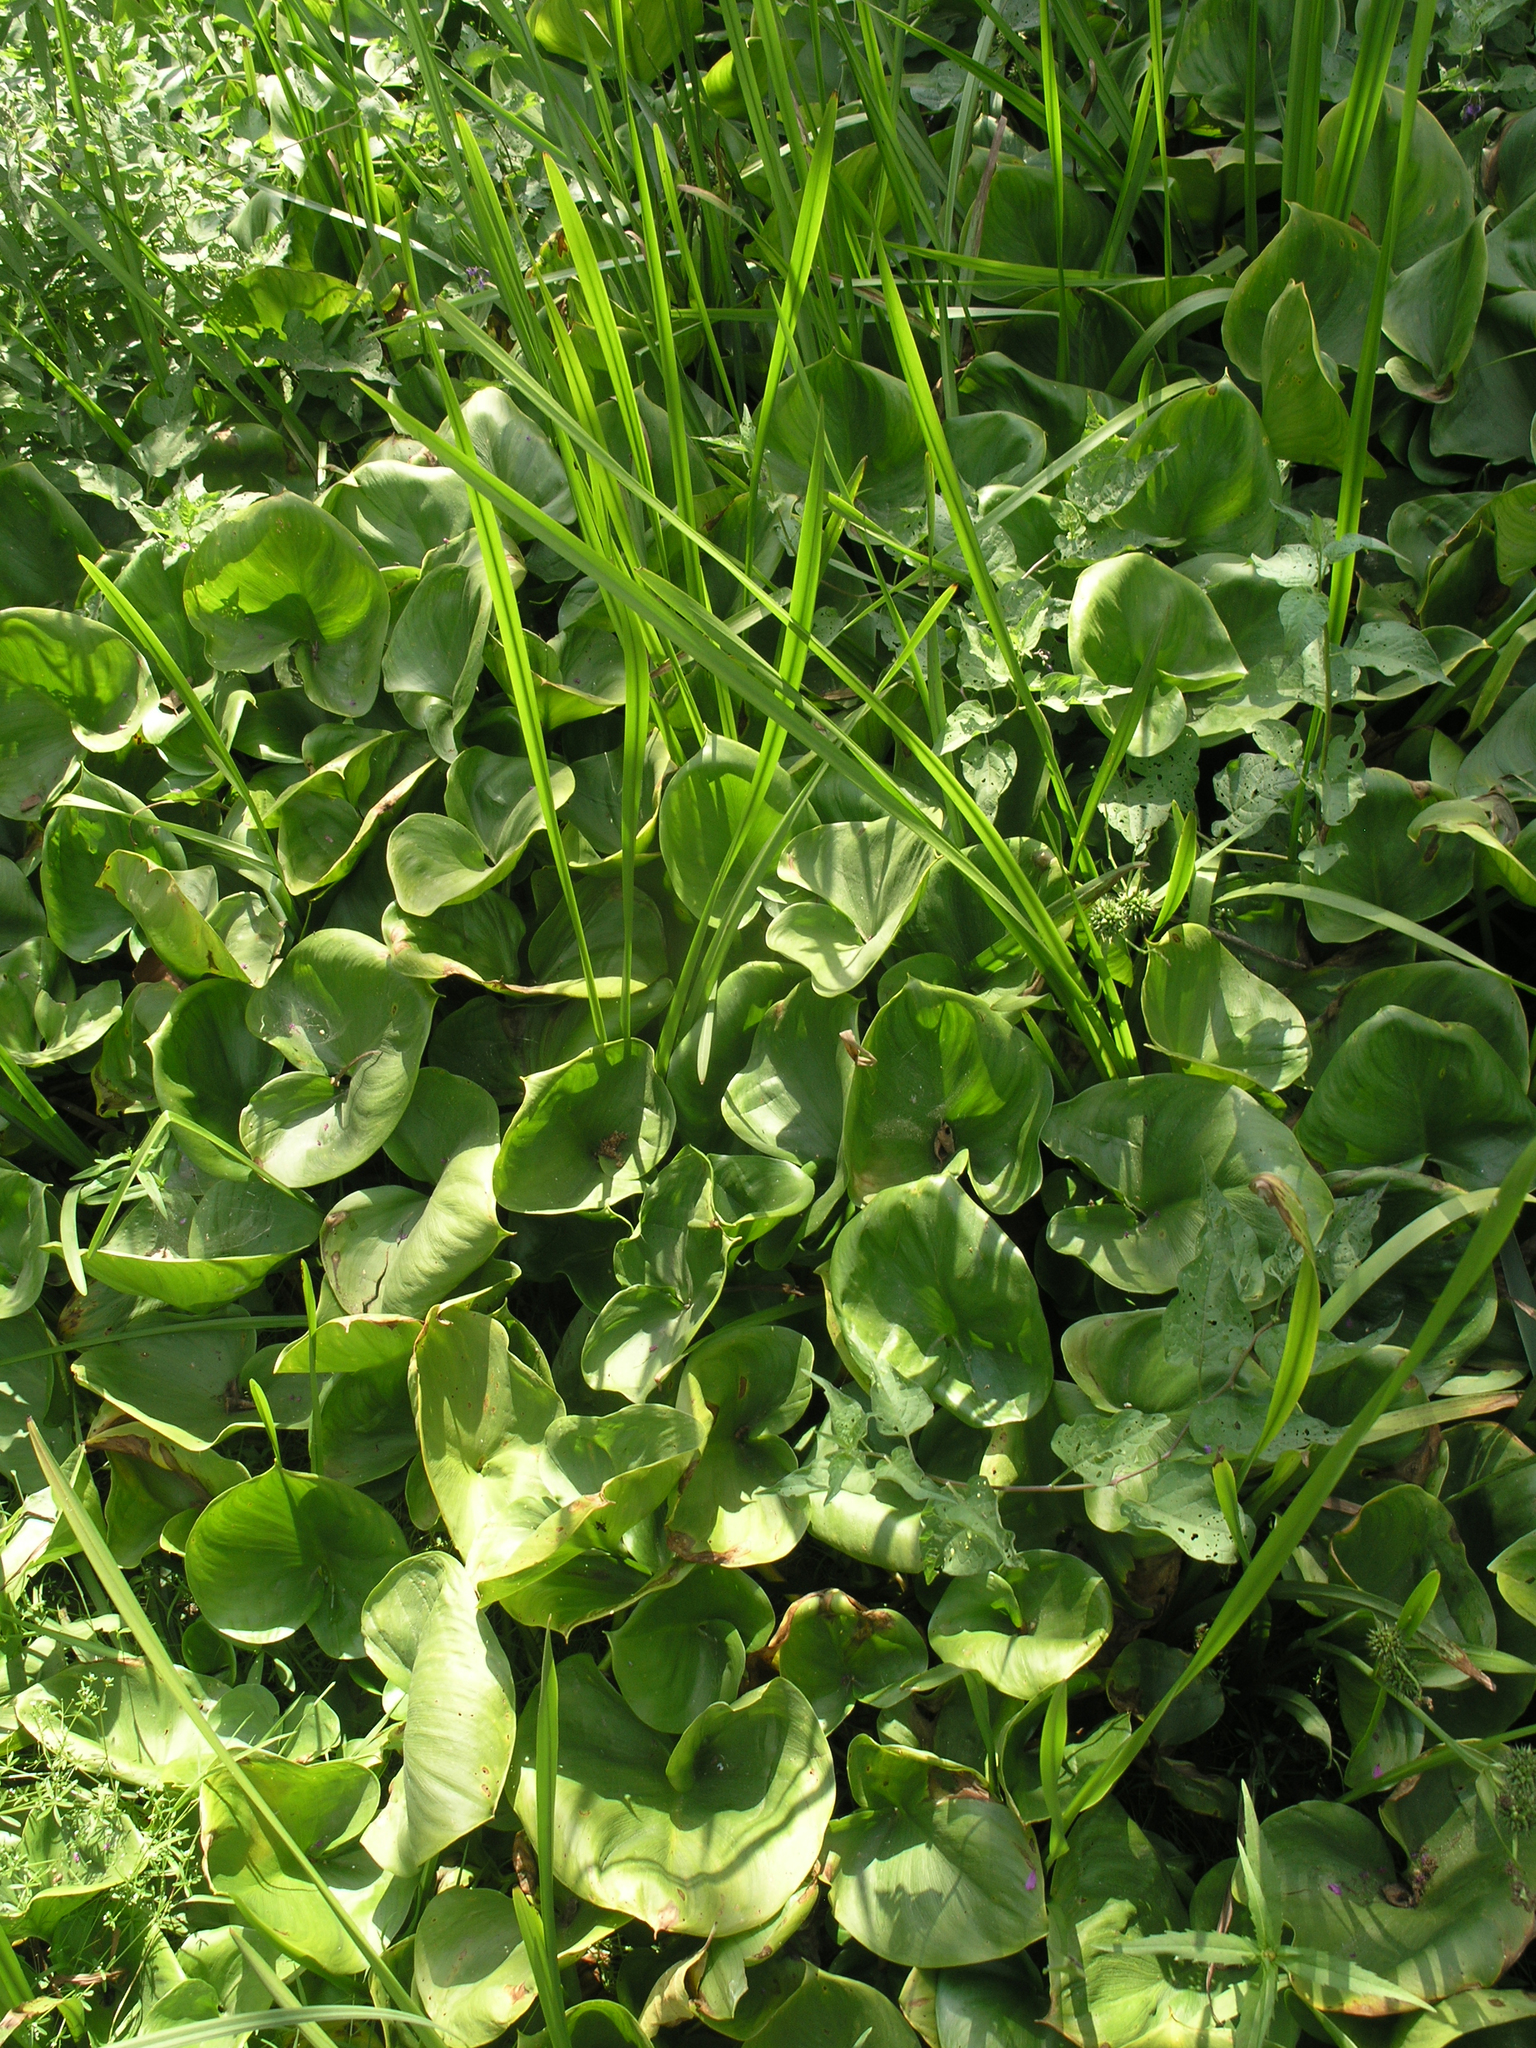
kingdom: Plantae
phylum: Tracheophyta
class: Liliopsida
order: Alismatales
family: Araceae
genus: Calla
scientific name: Calla palustris
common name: Bog arum
